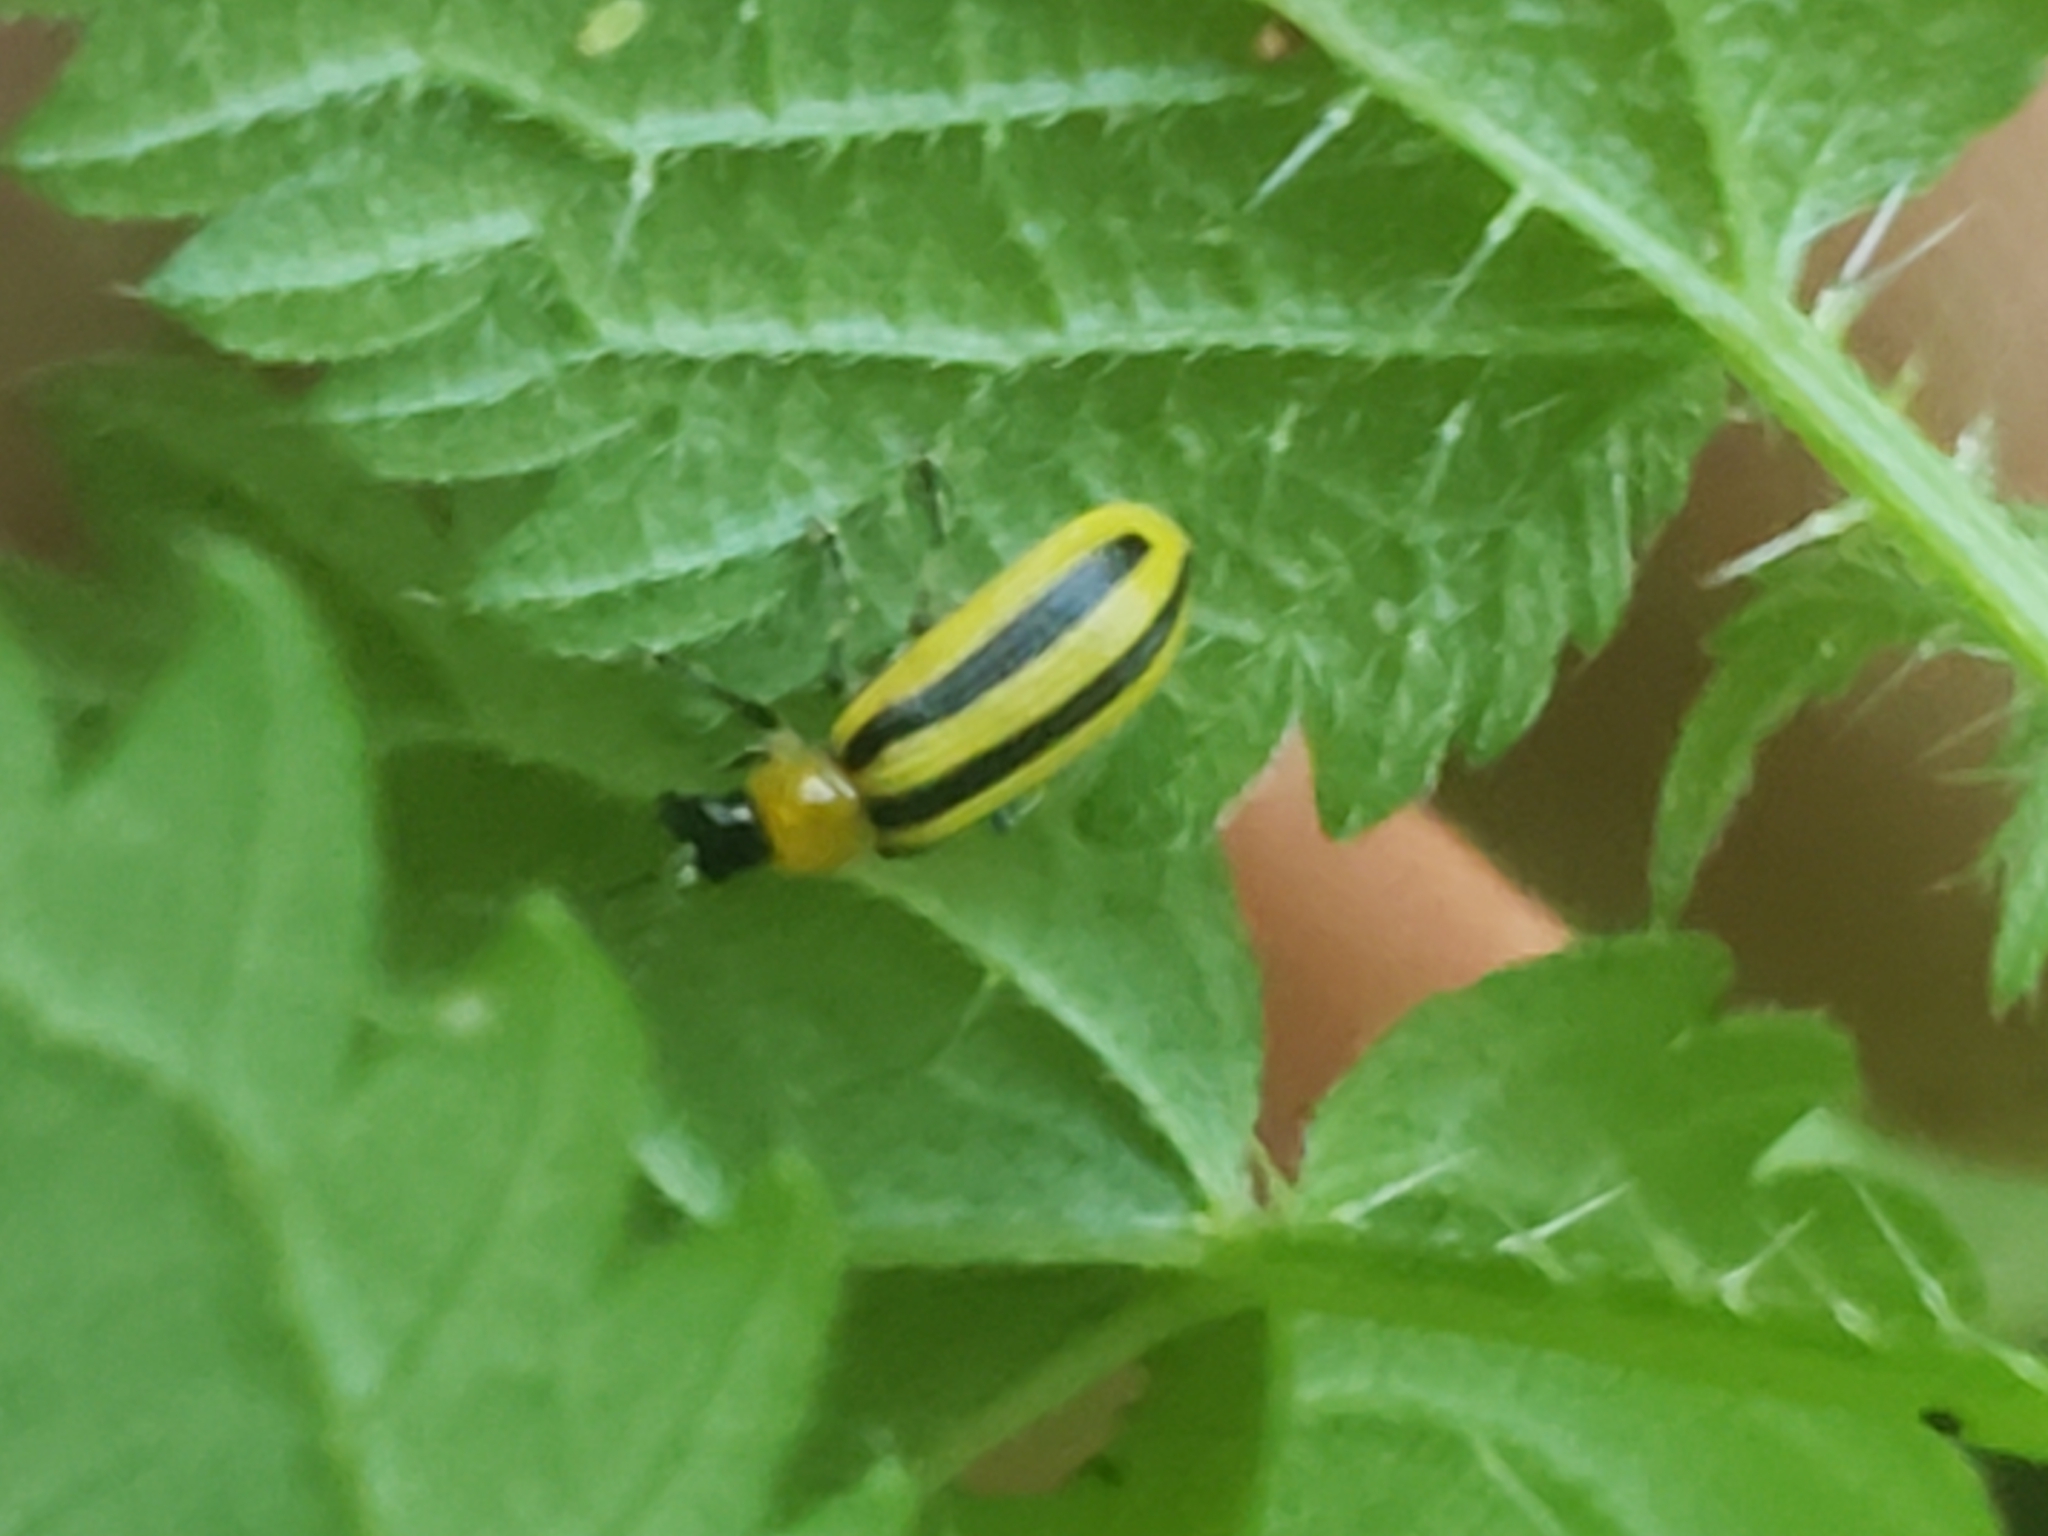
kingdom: Animalia
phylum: Arthropoda
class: Insecta
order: Coleoptera
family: Chrysomelidae
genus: Acalymma
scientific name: Acalymma vittatum
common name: Striped cucumber beetle
